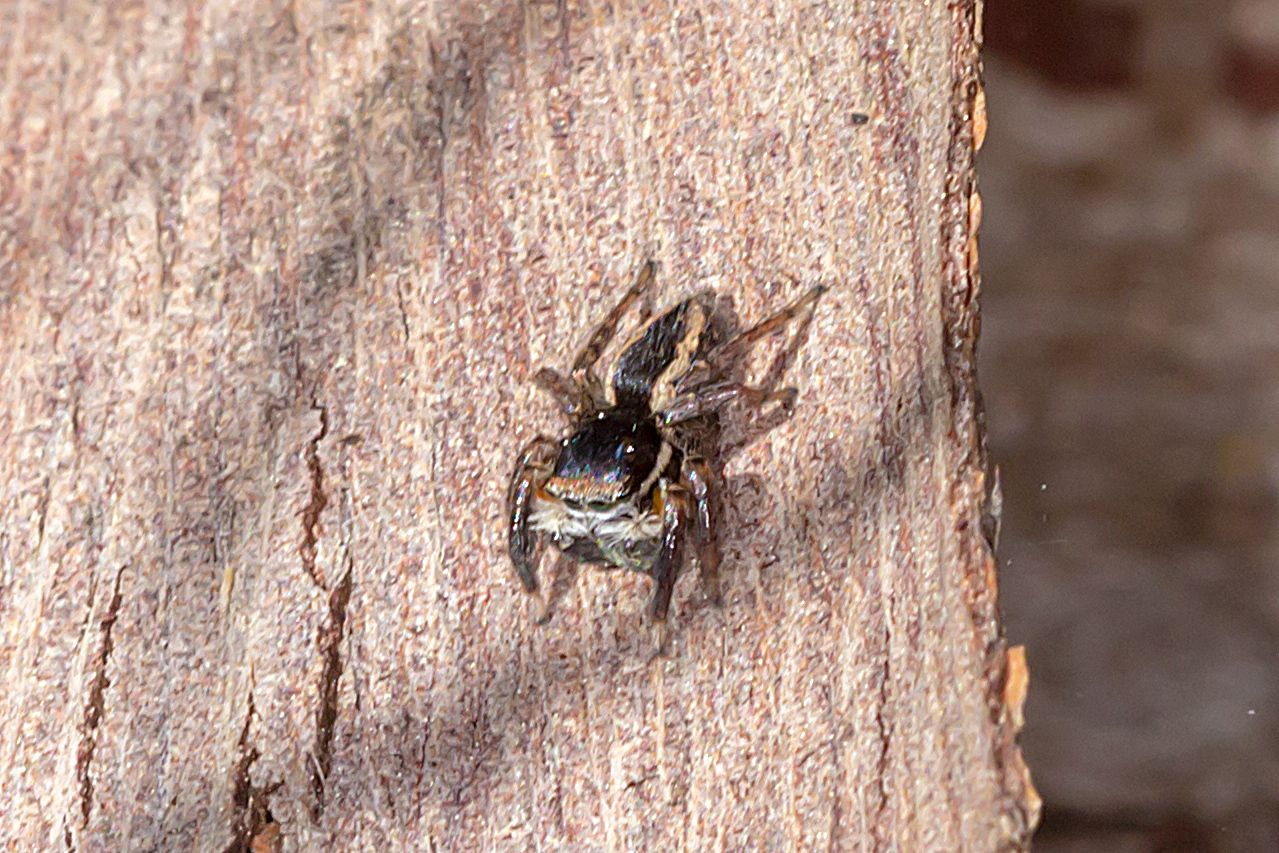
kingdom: Animalia
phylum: Arthropoda
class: Arachnida
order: Araneae
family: Salticidae
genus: Jotus
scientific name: Jotus auripes
